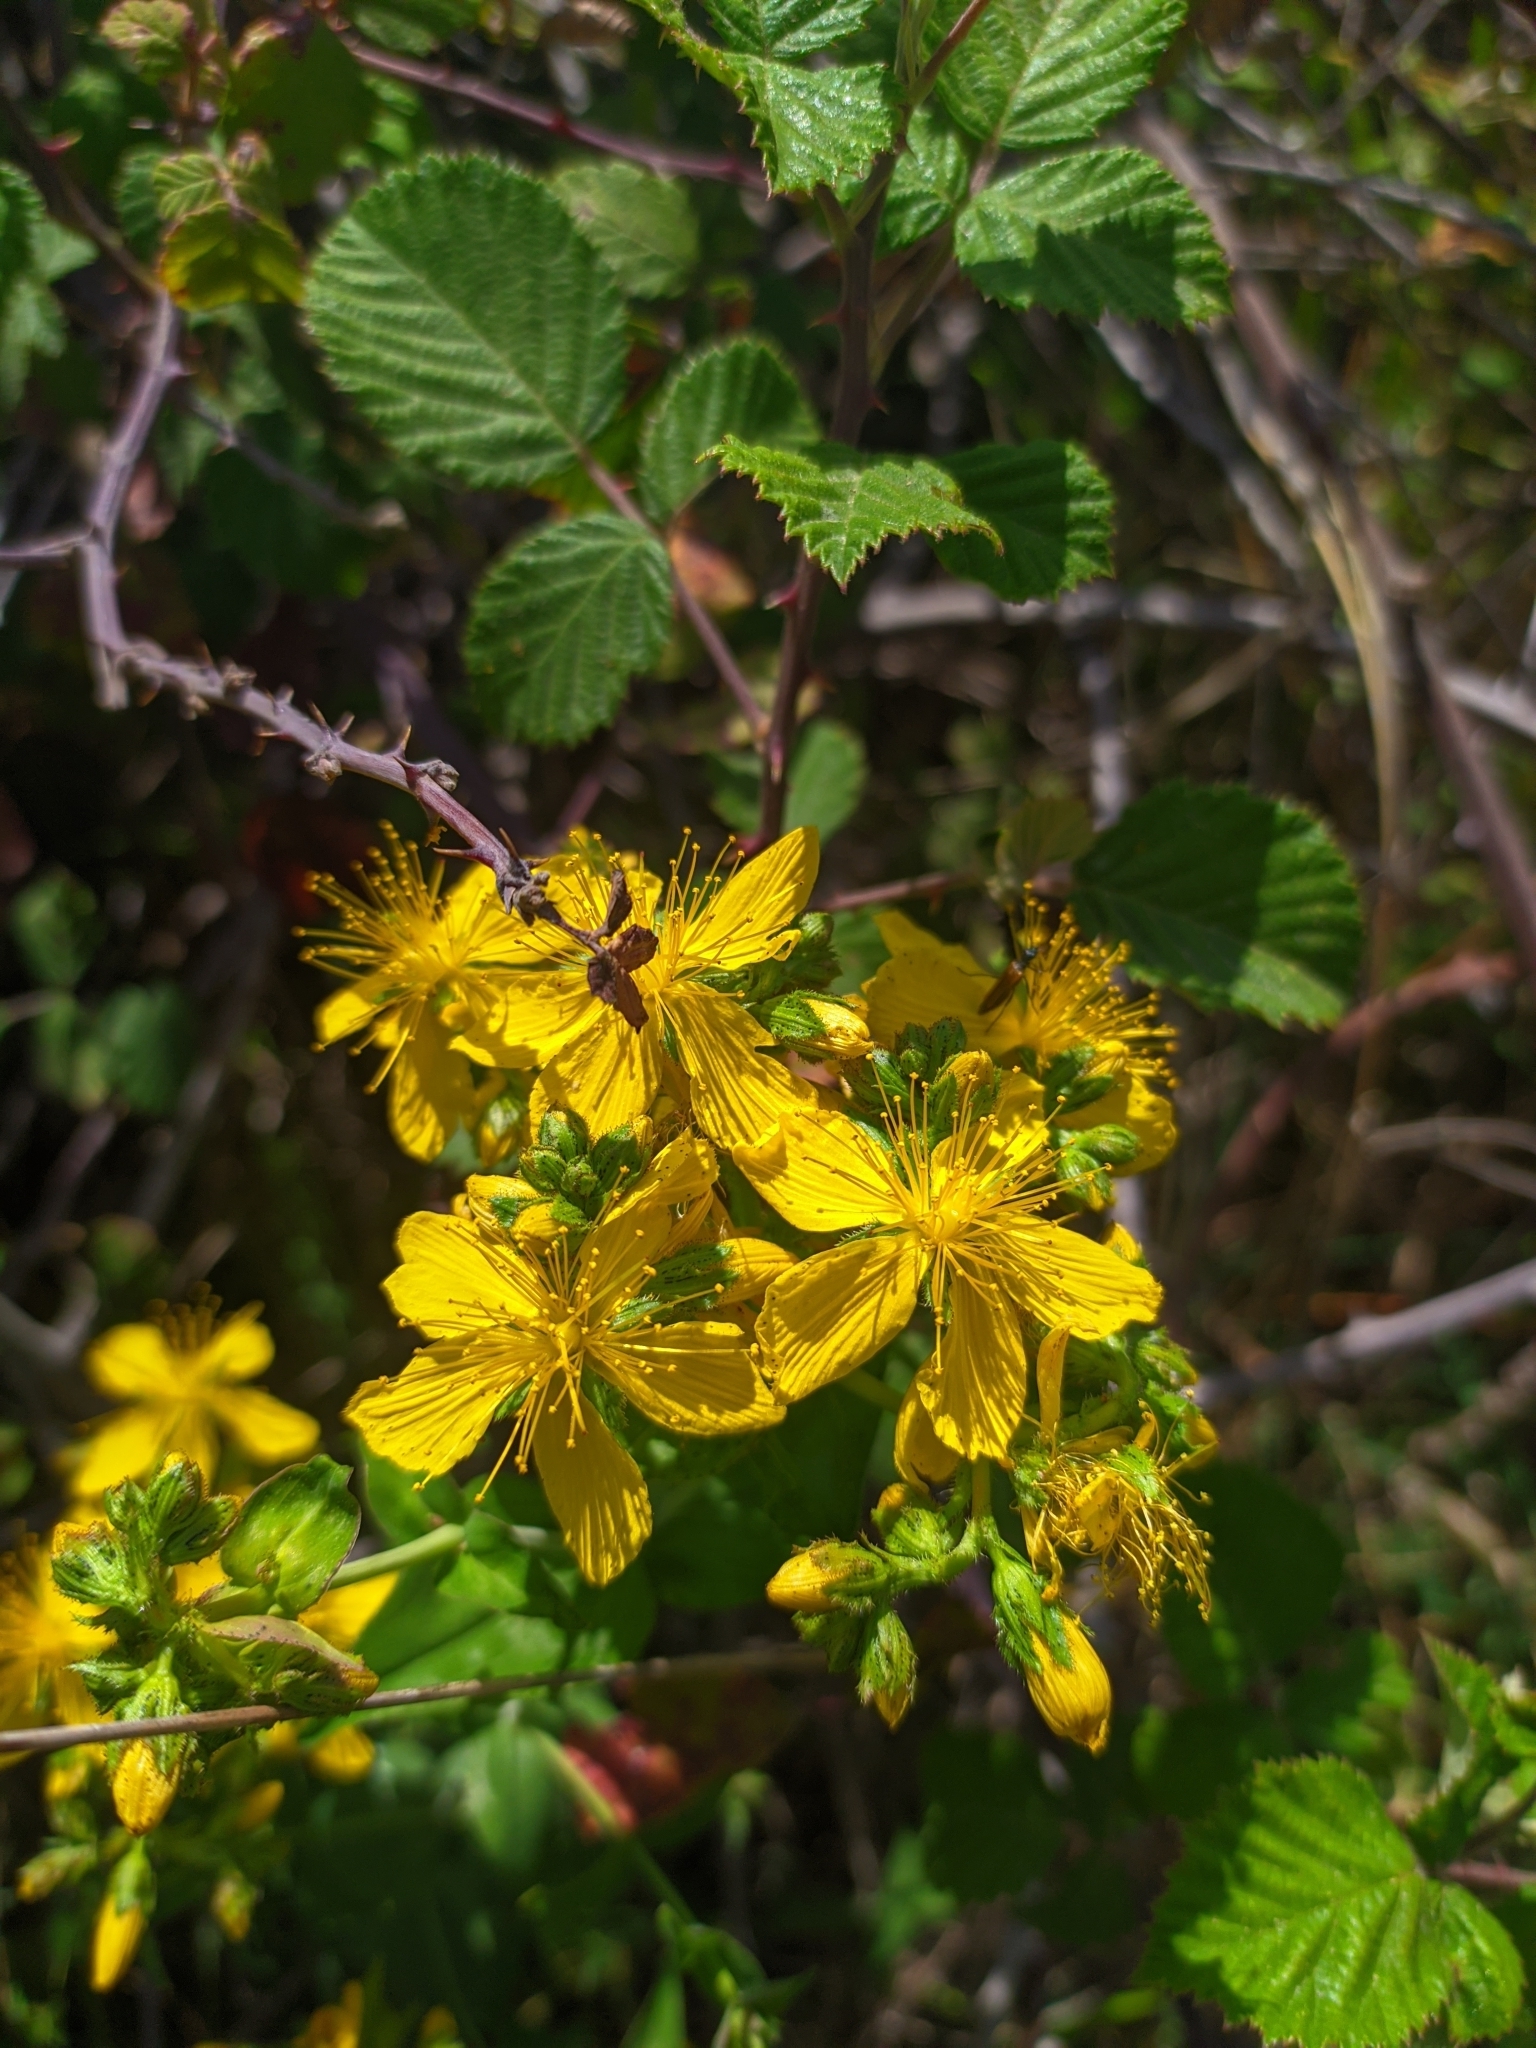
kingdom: Plantae
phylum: Tracheophyta
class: Magnoliopsida
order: Malpighiales
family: Hypericaceae
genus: Hypericum
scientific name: Hypericum perforatum
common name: Common st. johnswort
